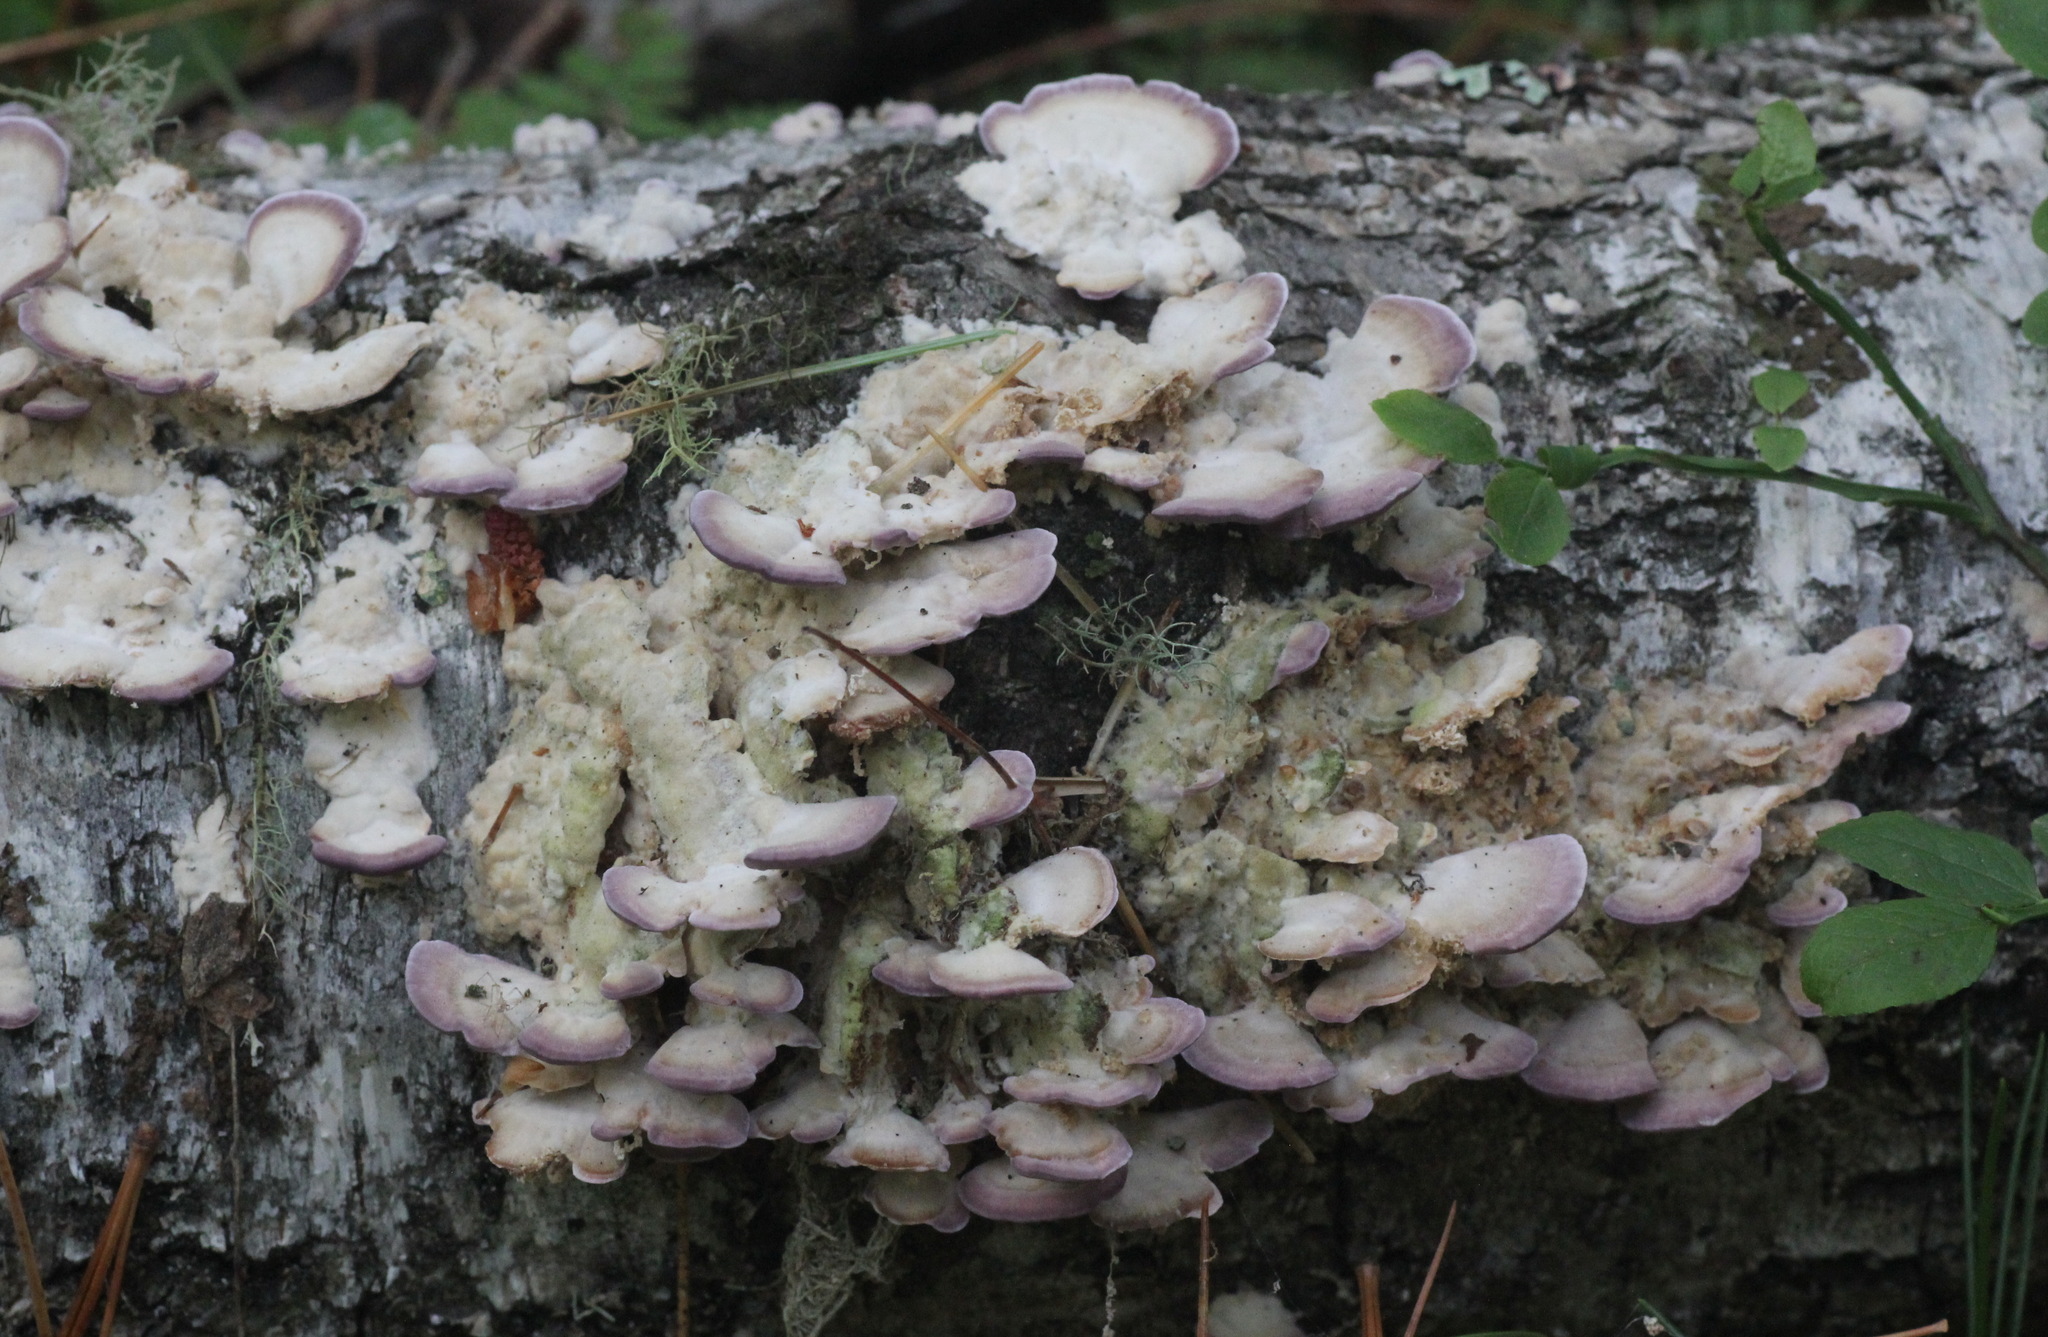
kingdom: Fungi
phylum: Basidiomycota
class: Agaricomycetes
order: Hymenochaetales
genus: Trichaptum
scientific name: Trichaptum biforme
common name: Violet-toothed polypore
